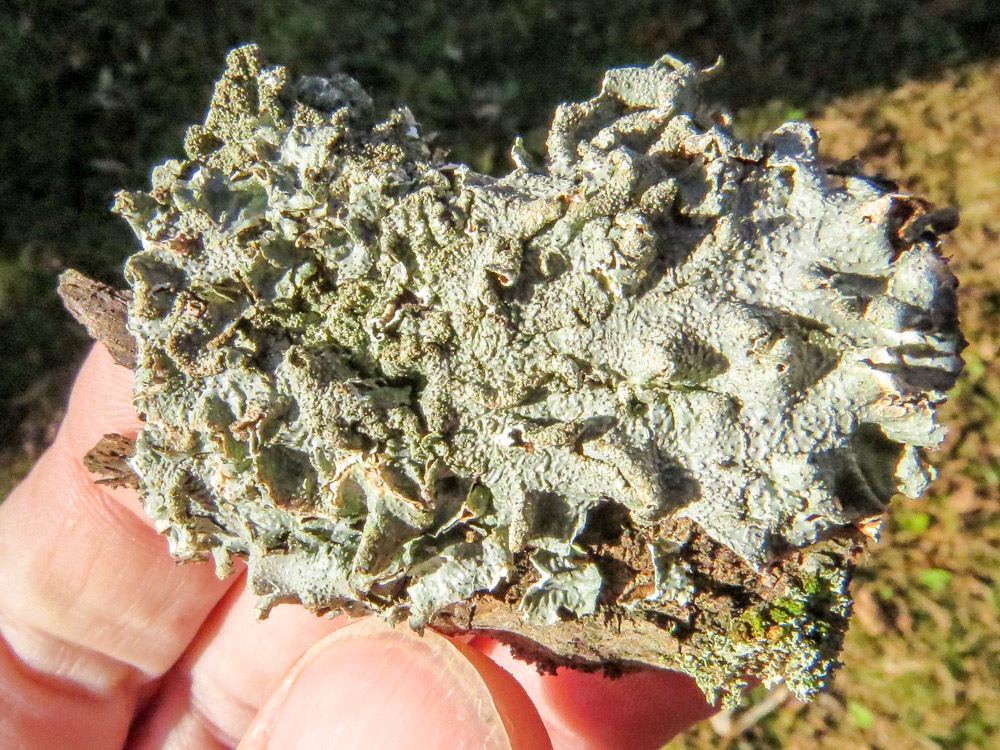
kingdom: Fungi
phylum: Ascomycota
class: Lecanoromycetes
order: Lecanorales
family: Parmeliaceae
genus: Flavoparmelia
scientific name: Flavoparmelia caperata
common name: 40-mile per hour lichen
